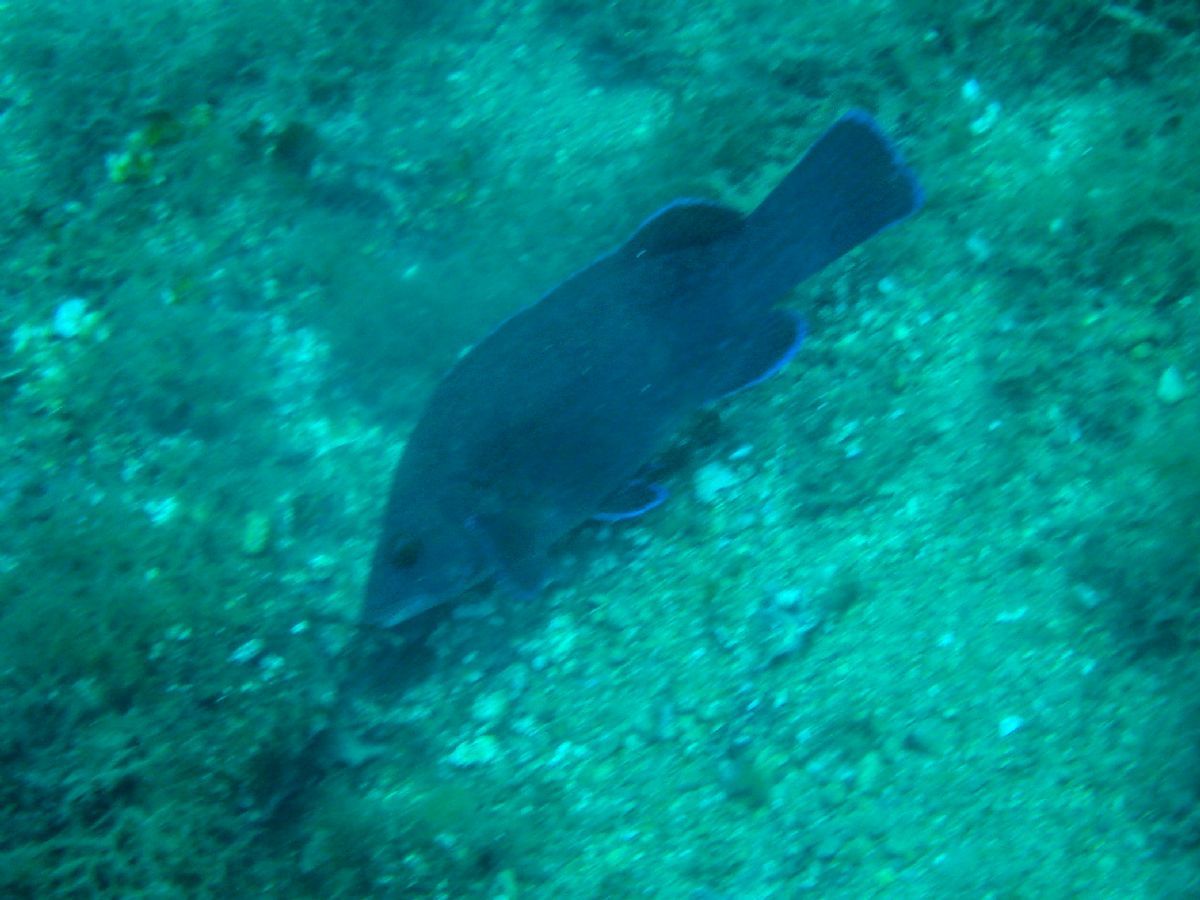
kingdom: Animalia
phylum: Chordata
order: Perciformes
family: Labridae
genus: Labrus
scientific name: Labrus merula
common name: Brown wrasse
